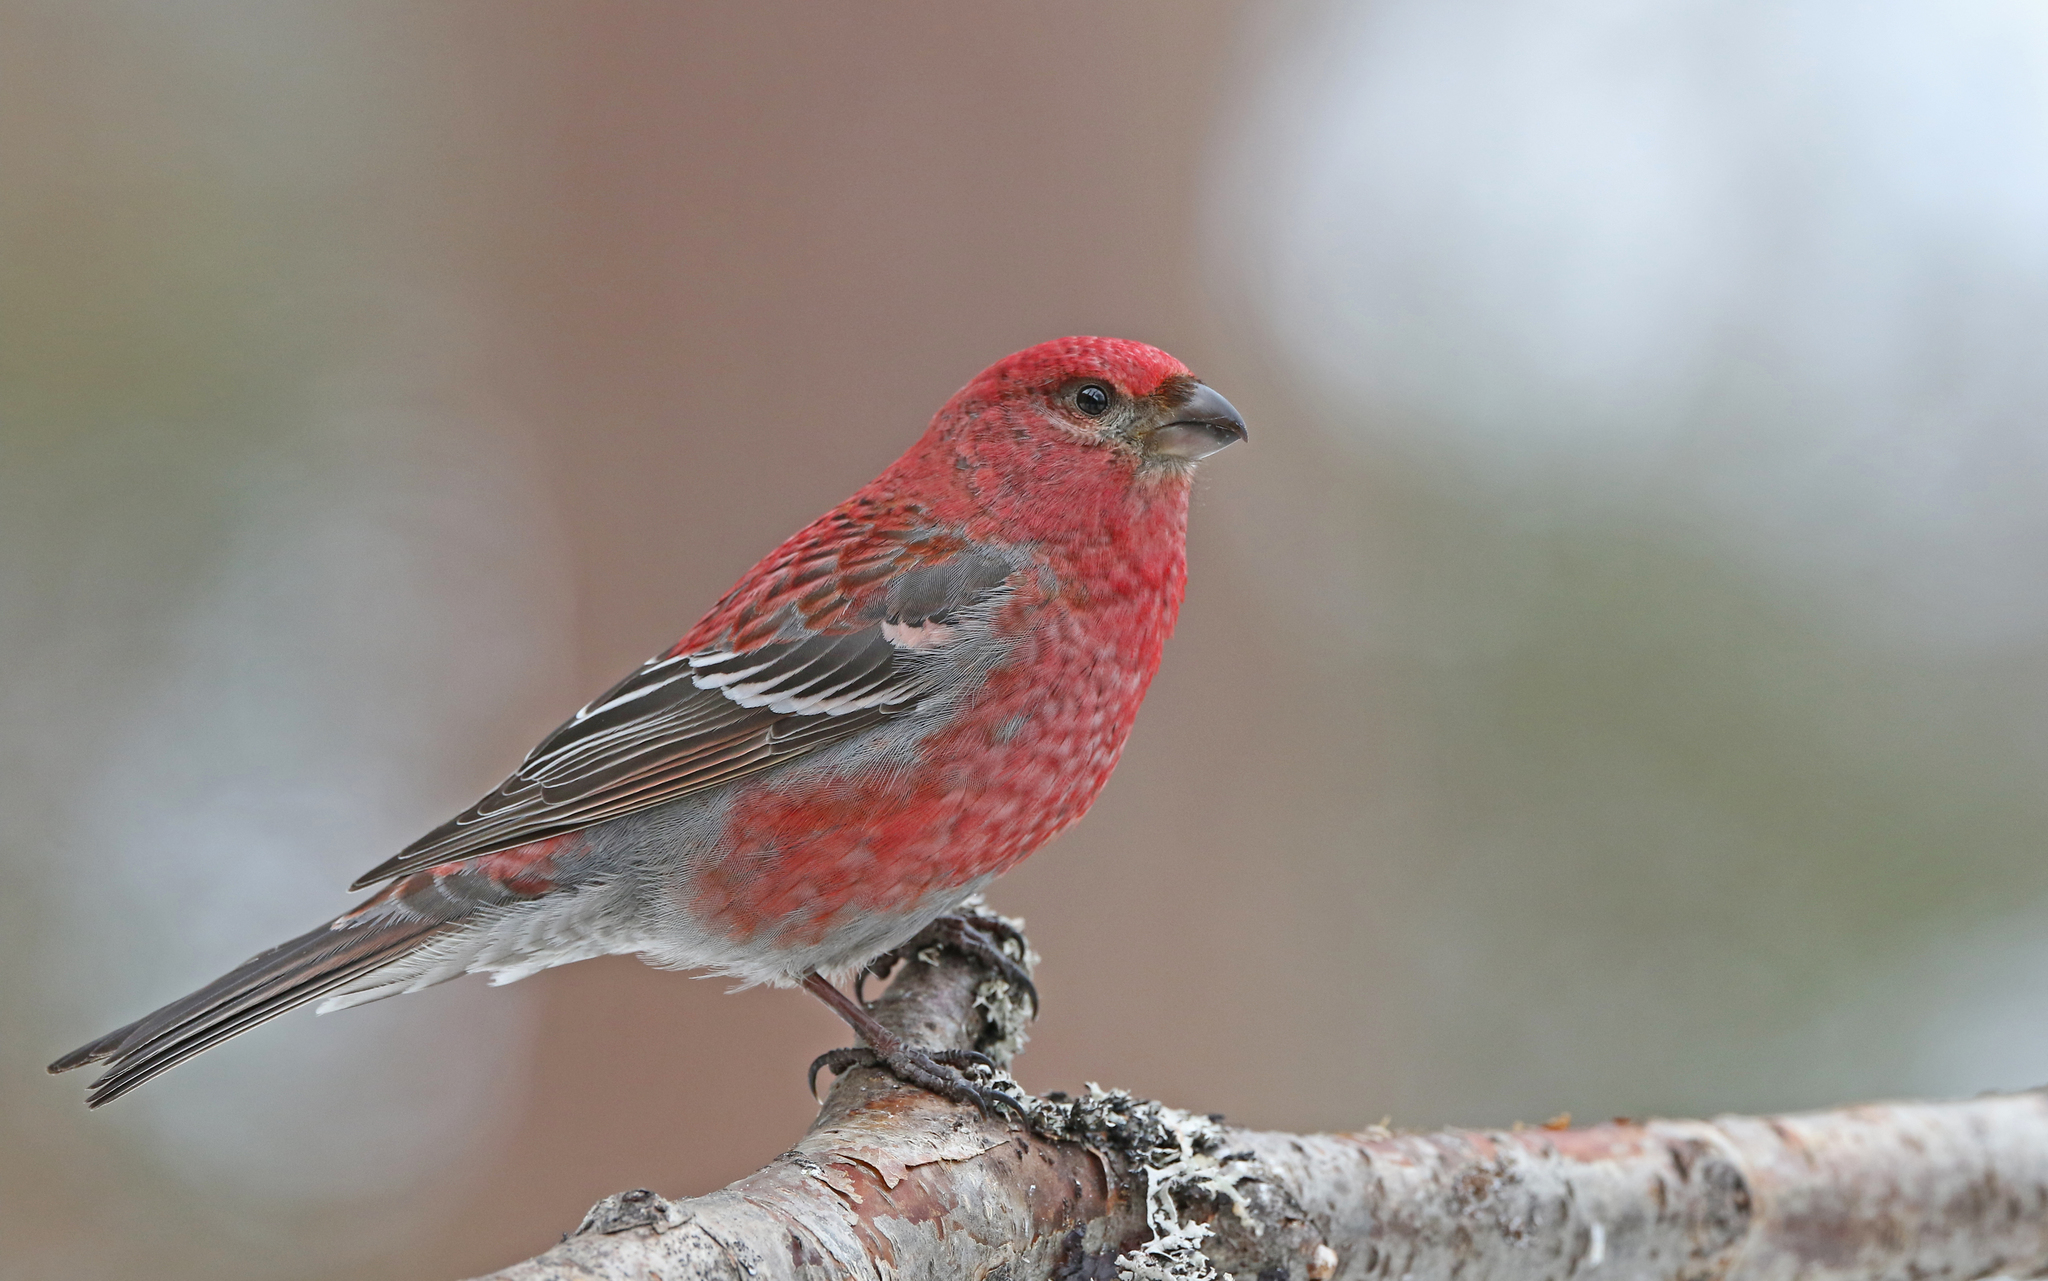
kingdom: Animalia
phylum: Chordata
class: Aves
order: Passeriformes
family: Fringillidae
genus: Pinicola
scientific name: Pinicola enucleator
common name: Pine grosbeak
